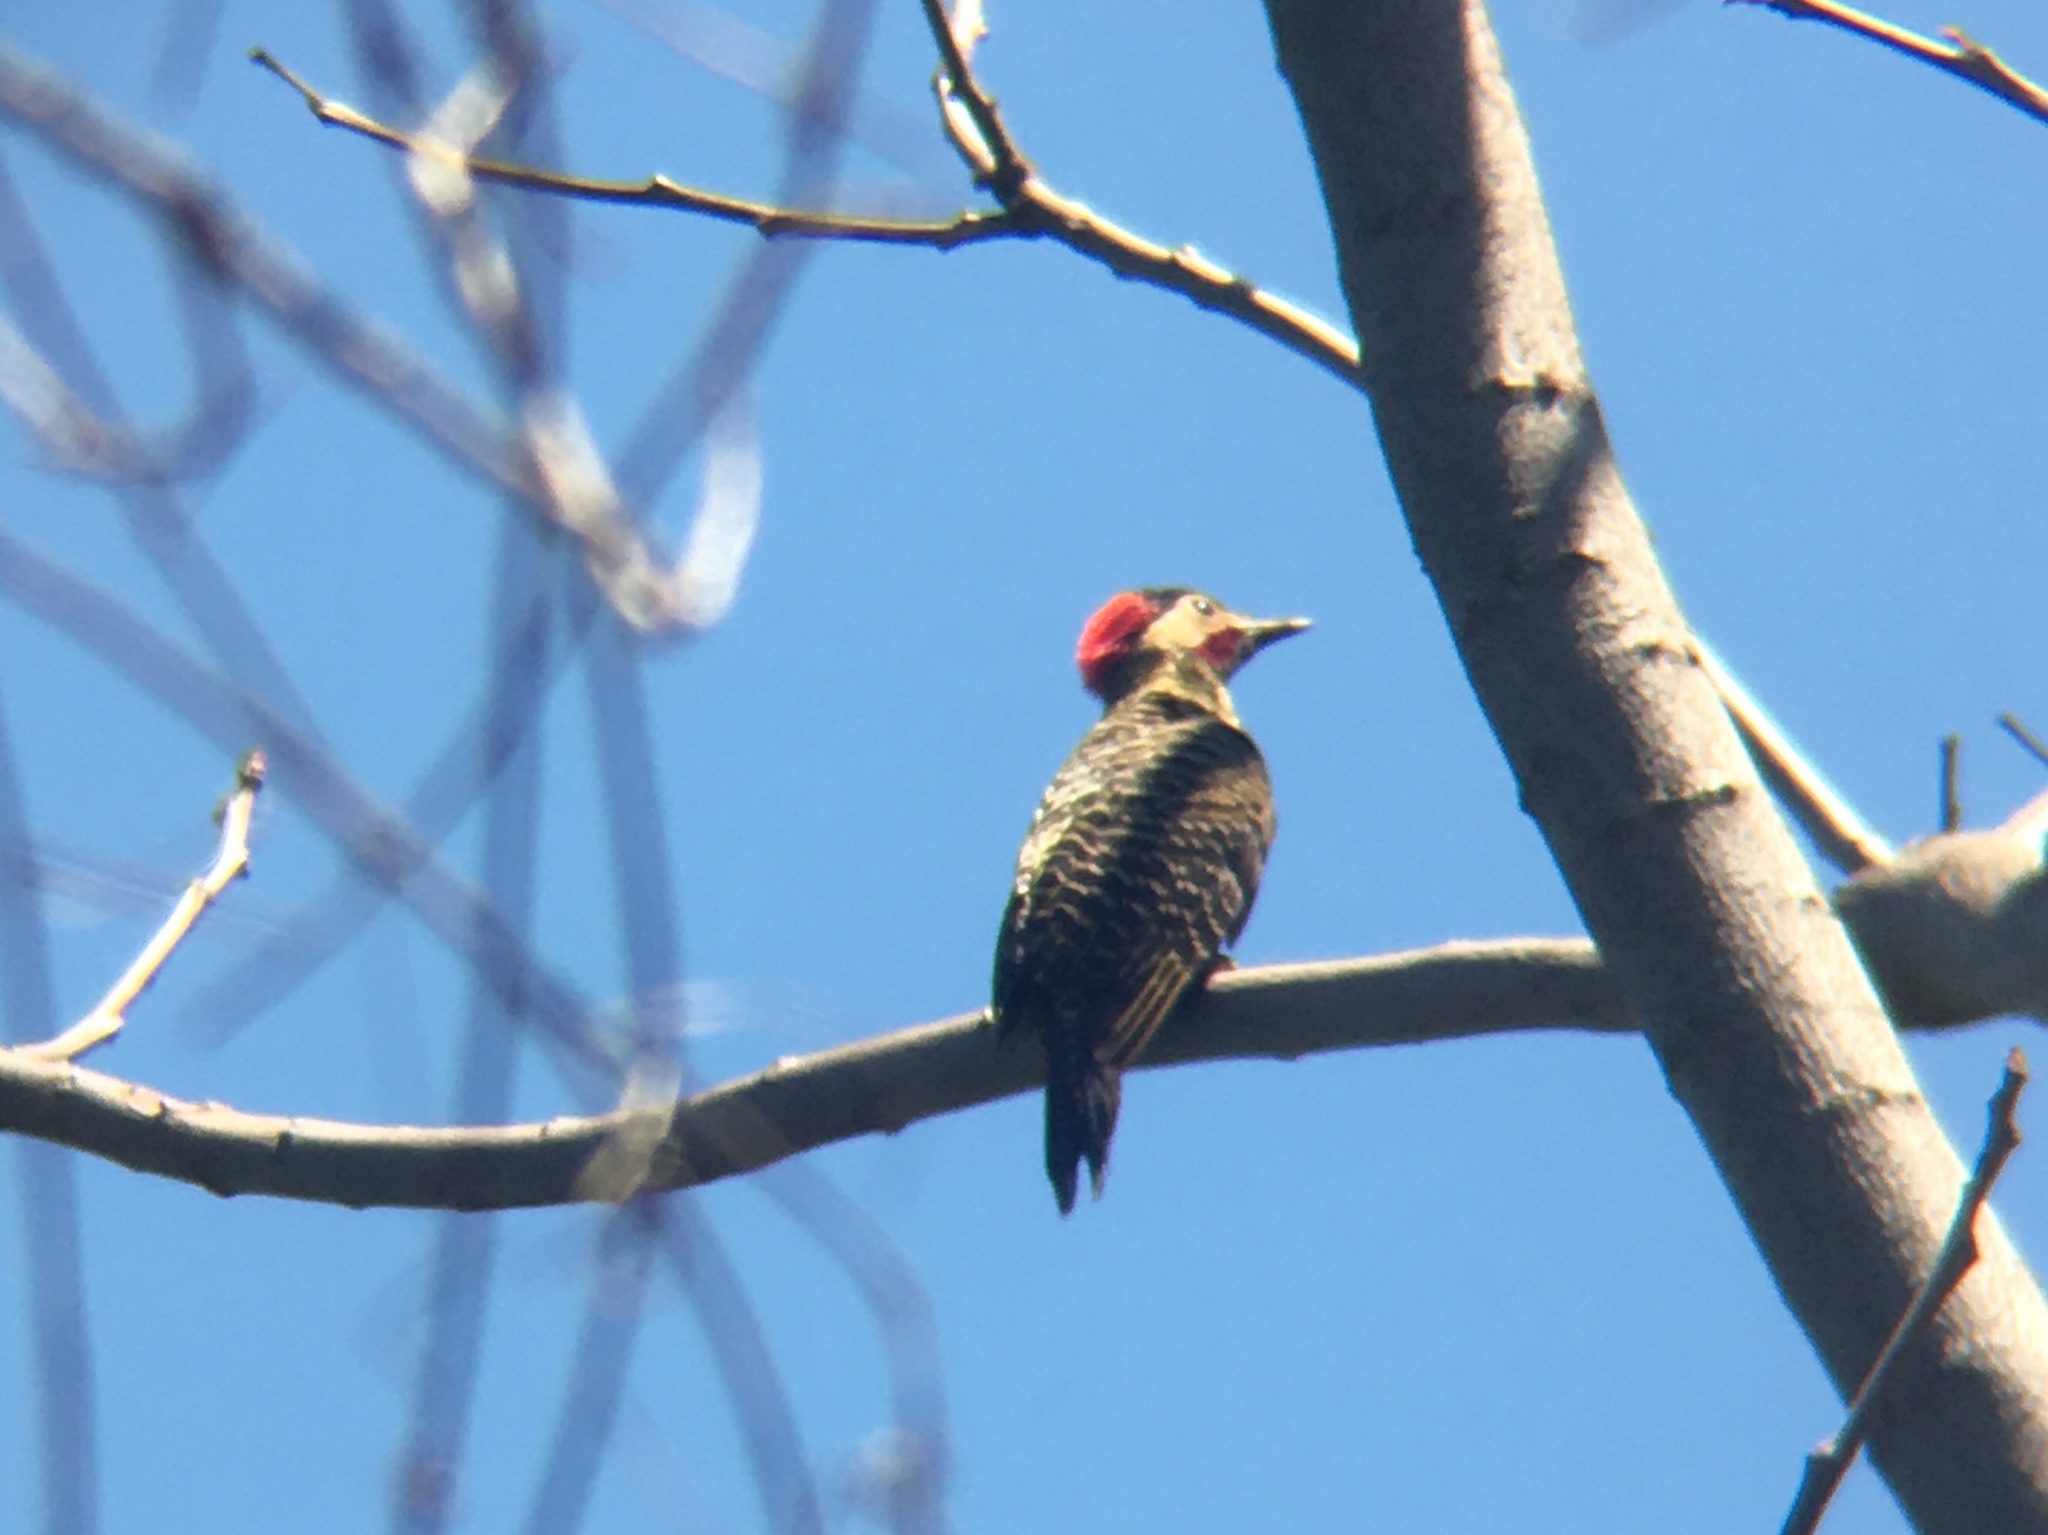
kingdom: Animalia
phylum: Chordata
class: Aves
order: Piciformes
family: Picidae
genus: Colaptes
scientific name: Colaptes melanochloros
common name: Green-barred woodpecker
